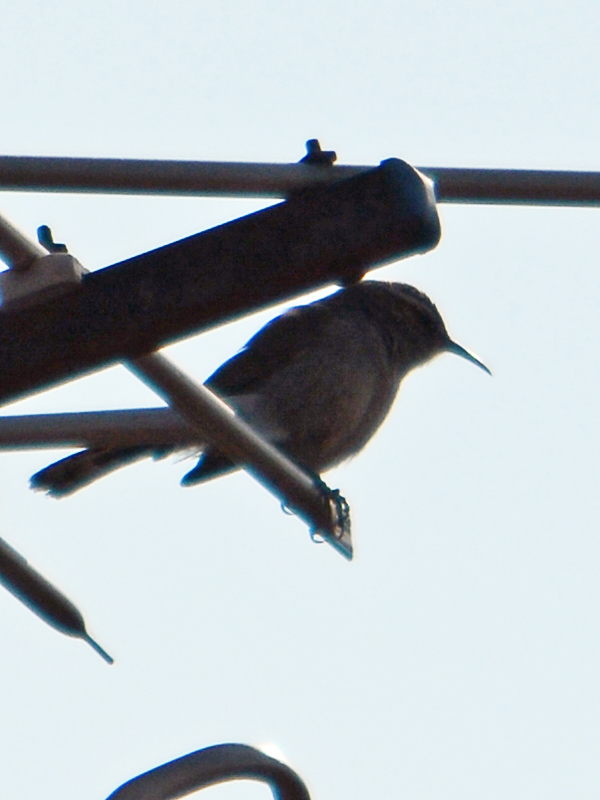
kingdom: Animalia
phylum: Chordata
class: Aves
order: Passeriformes
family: Troglodytidae
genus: Thryomanes
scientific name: Thryomanes bewickii
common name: Bewick's wren
